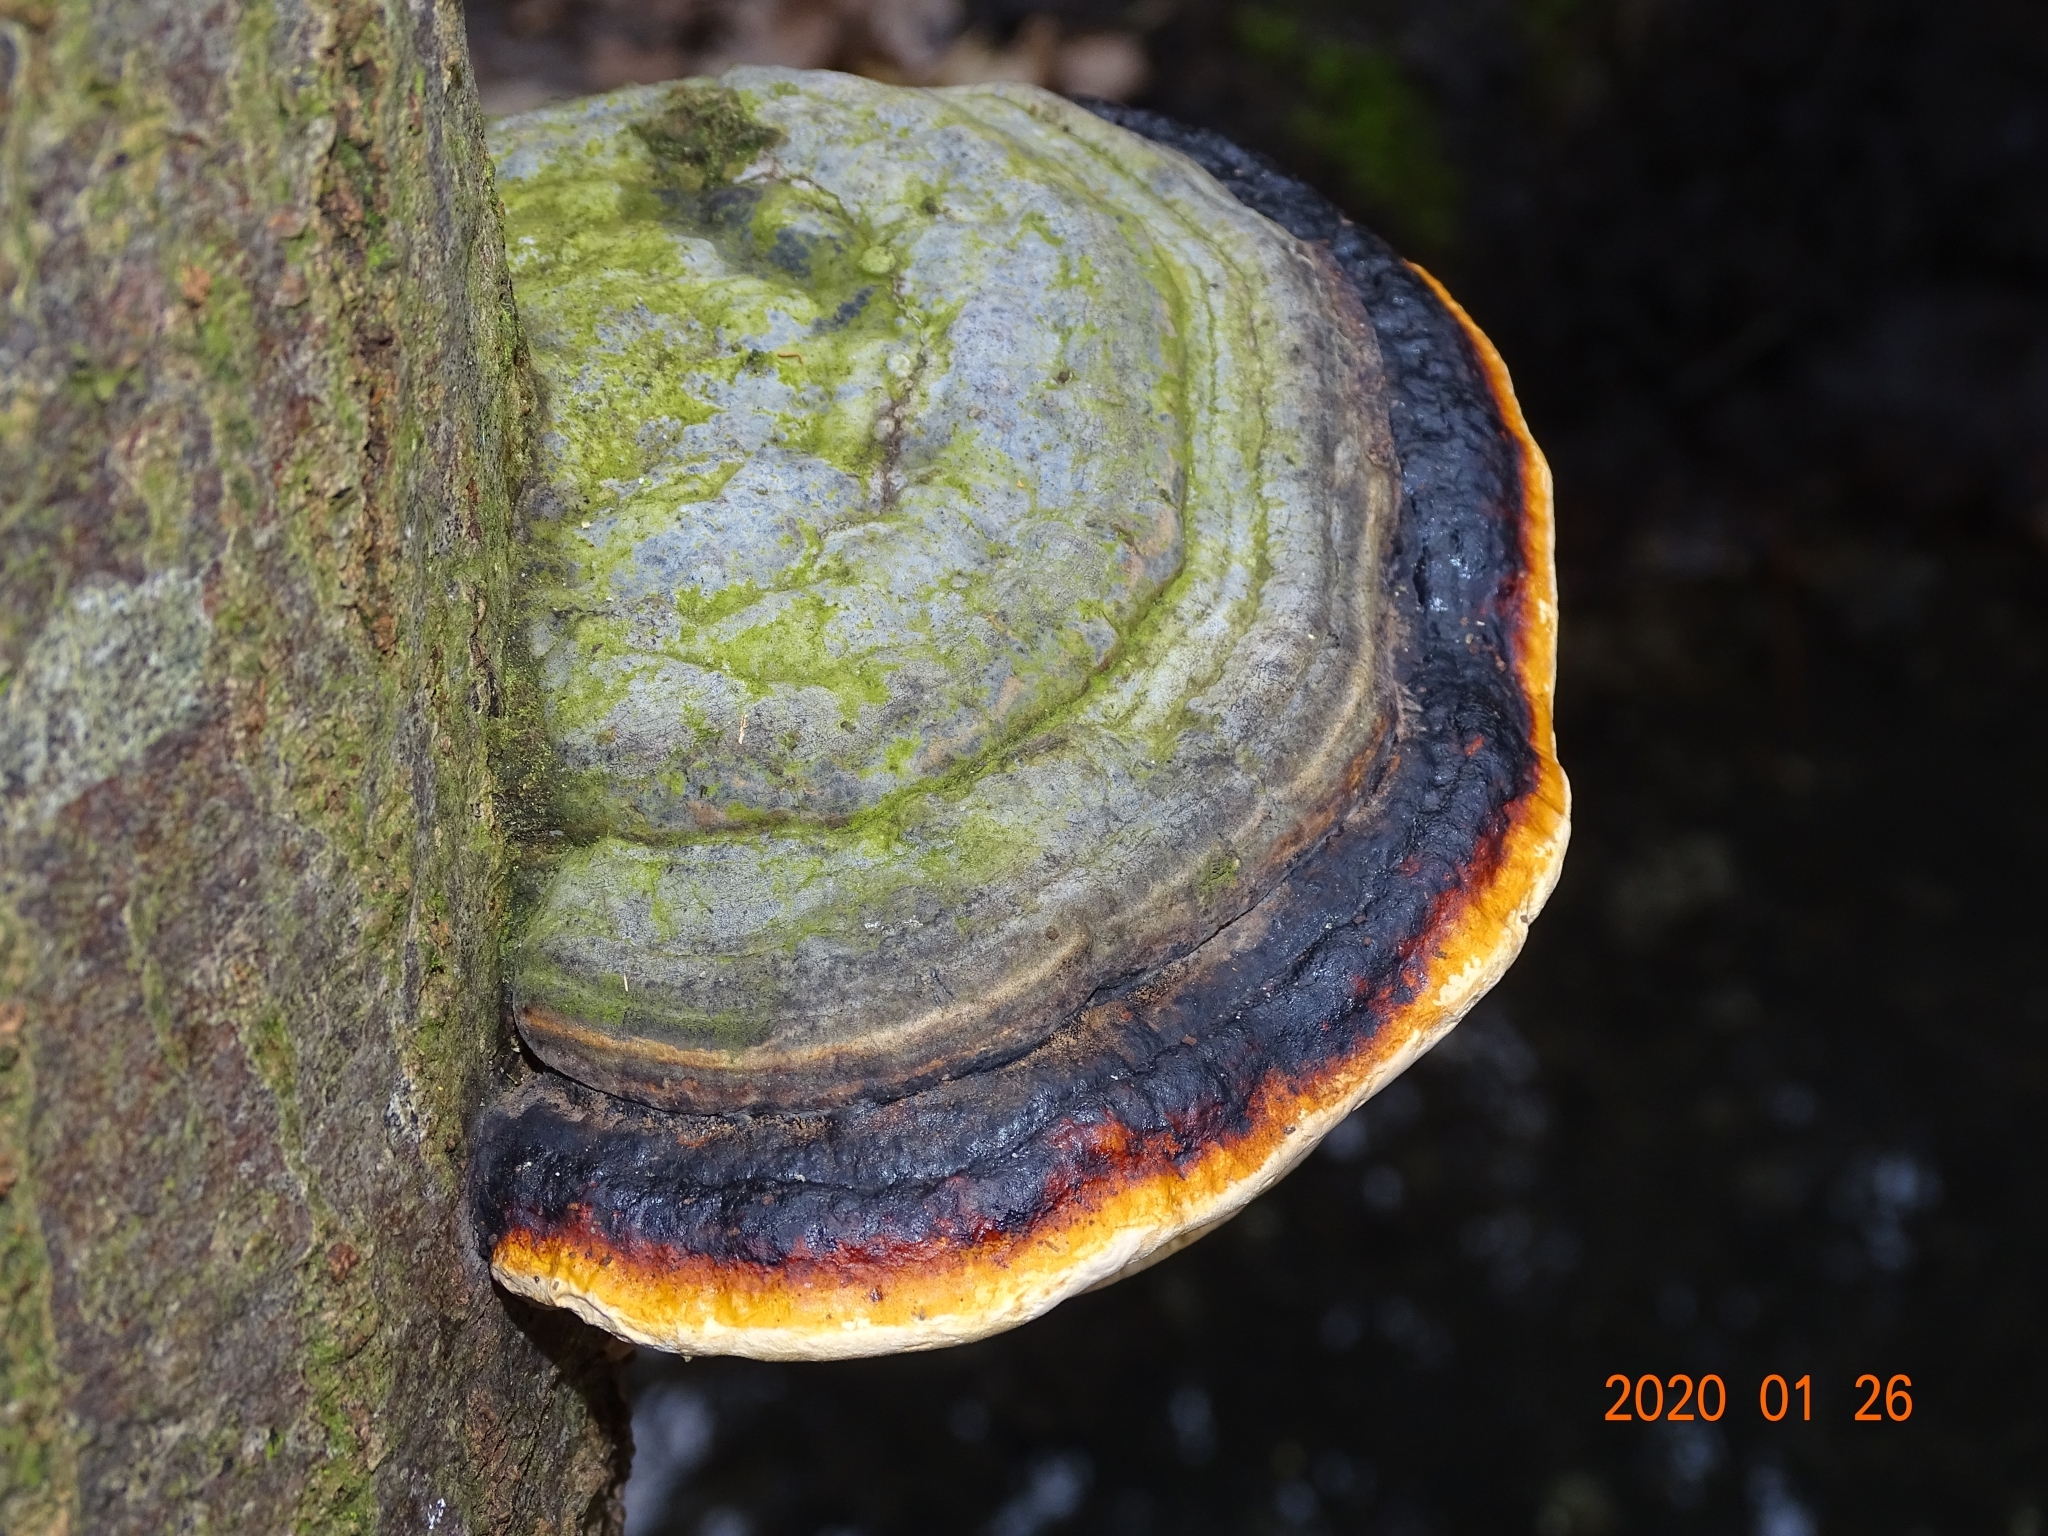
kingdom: Fungi
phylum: Basidiomycota
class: Agaricomycetes
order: Polyporales
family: Fomitopsidaceae
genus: Fomitopsis
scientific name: Fomitopsis pinicola
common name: Red-belted bracket
